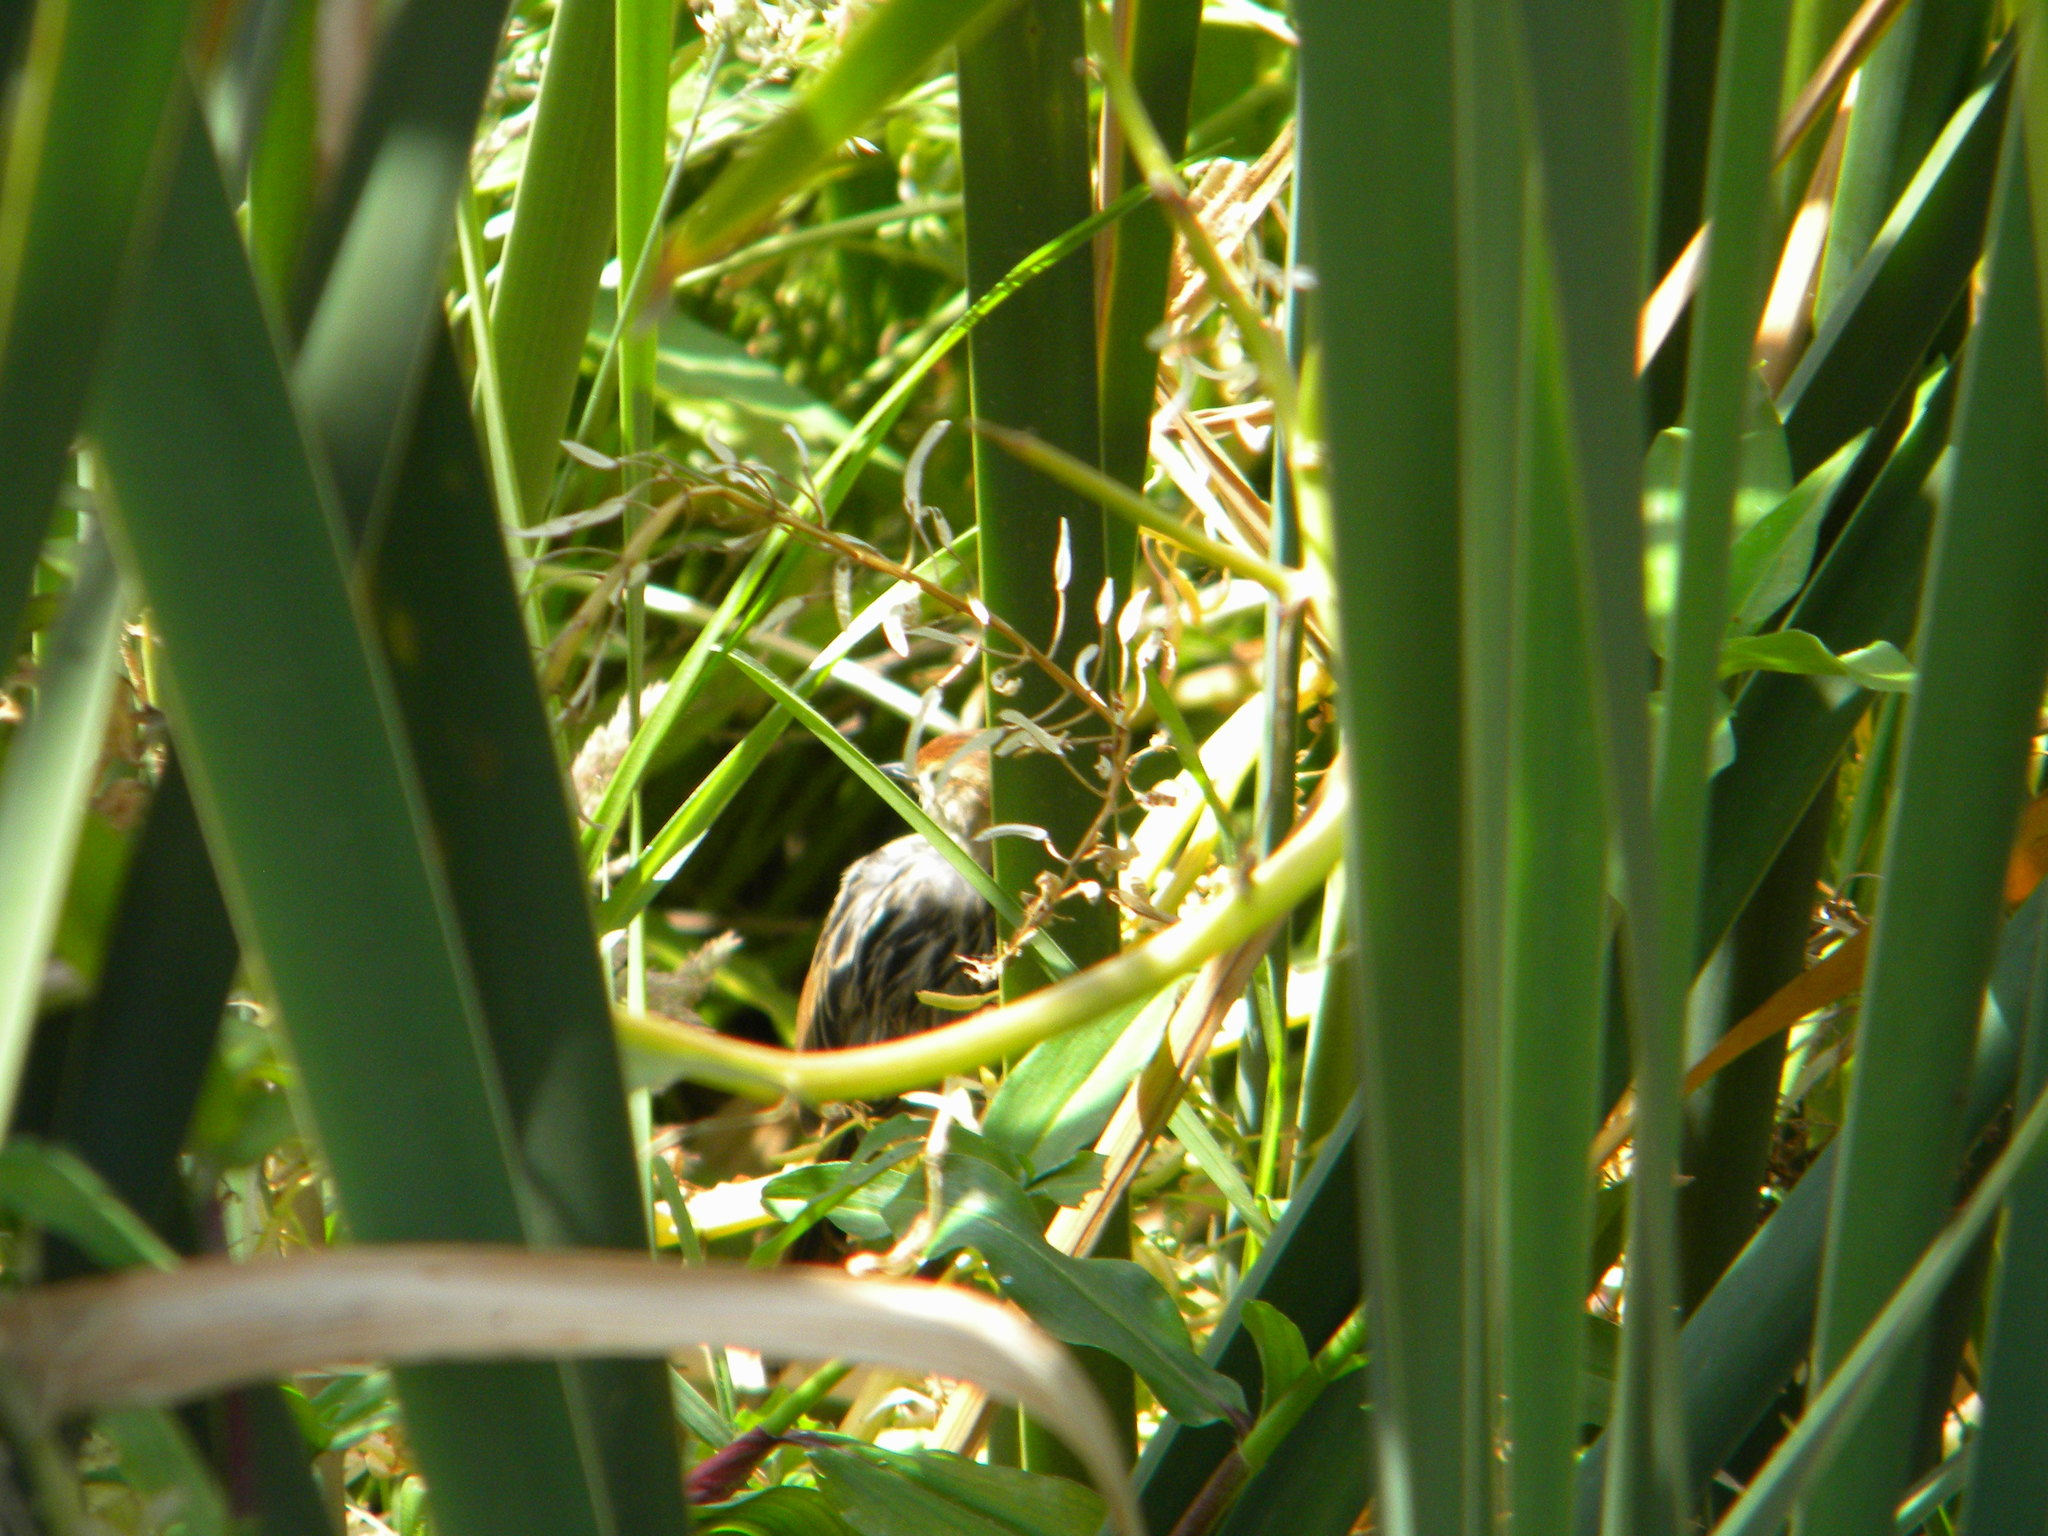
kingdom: Animalia
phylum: Chordata
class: Aves
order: Passeriformes
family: Cisticolidae
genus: Cisticola
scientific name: Cisticola tinniens
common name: Levaillant's cisticola
